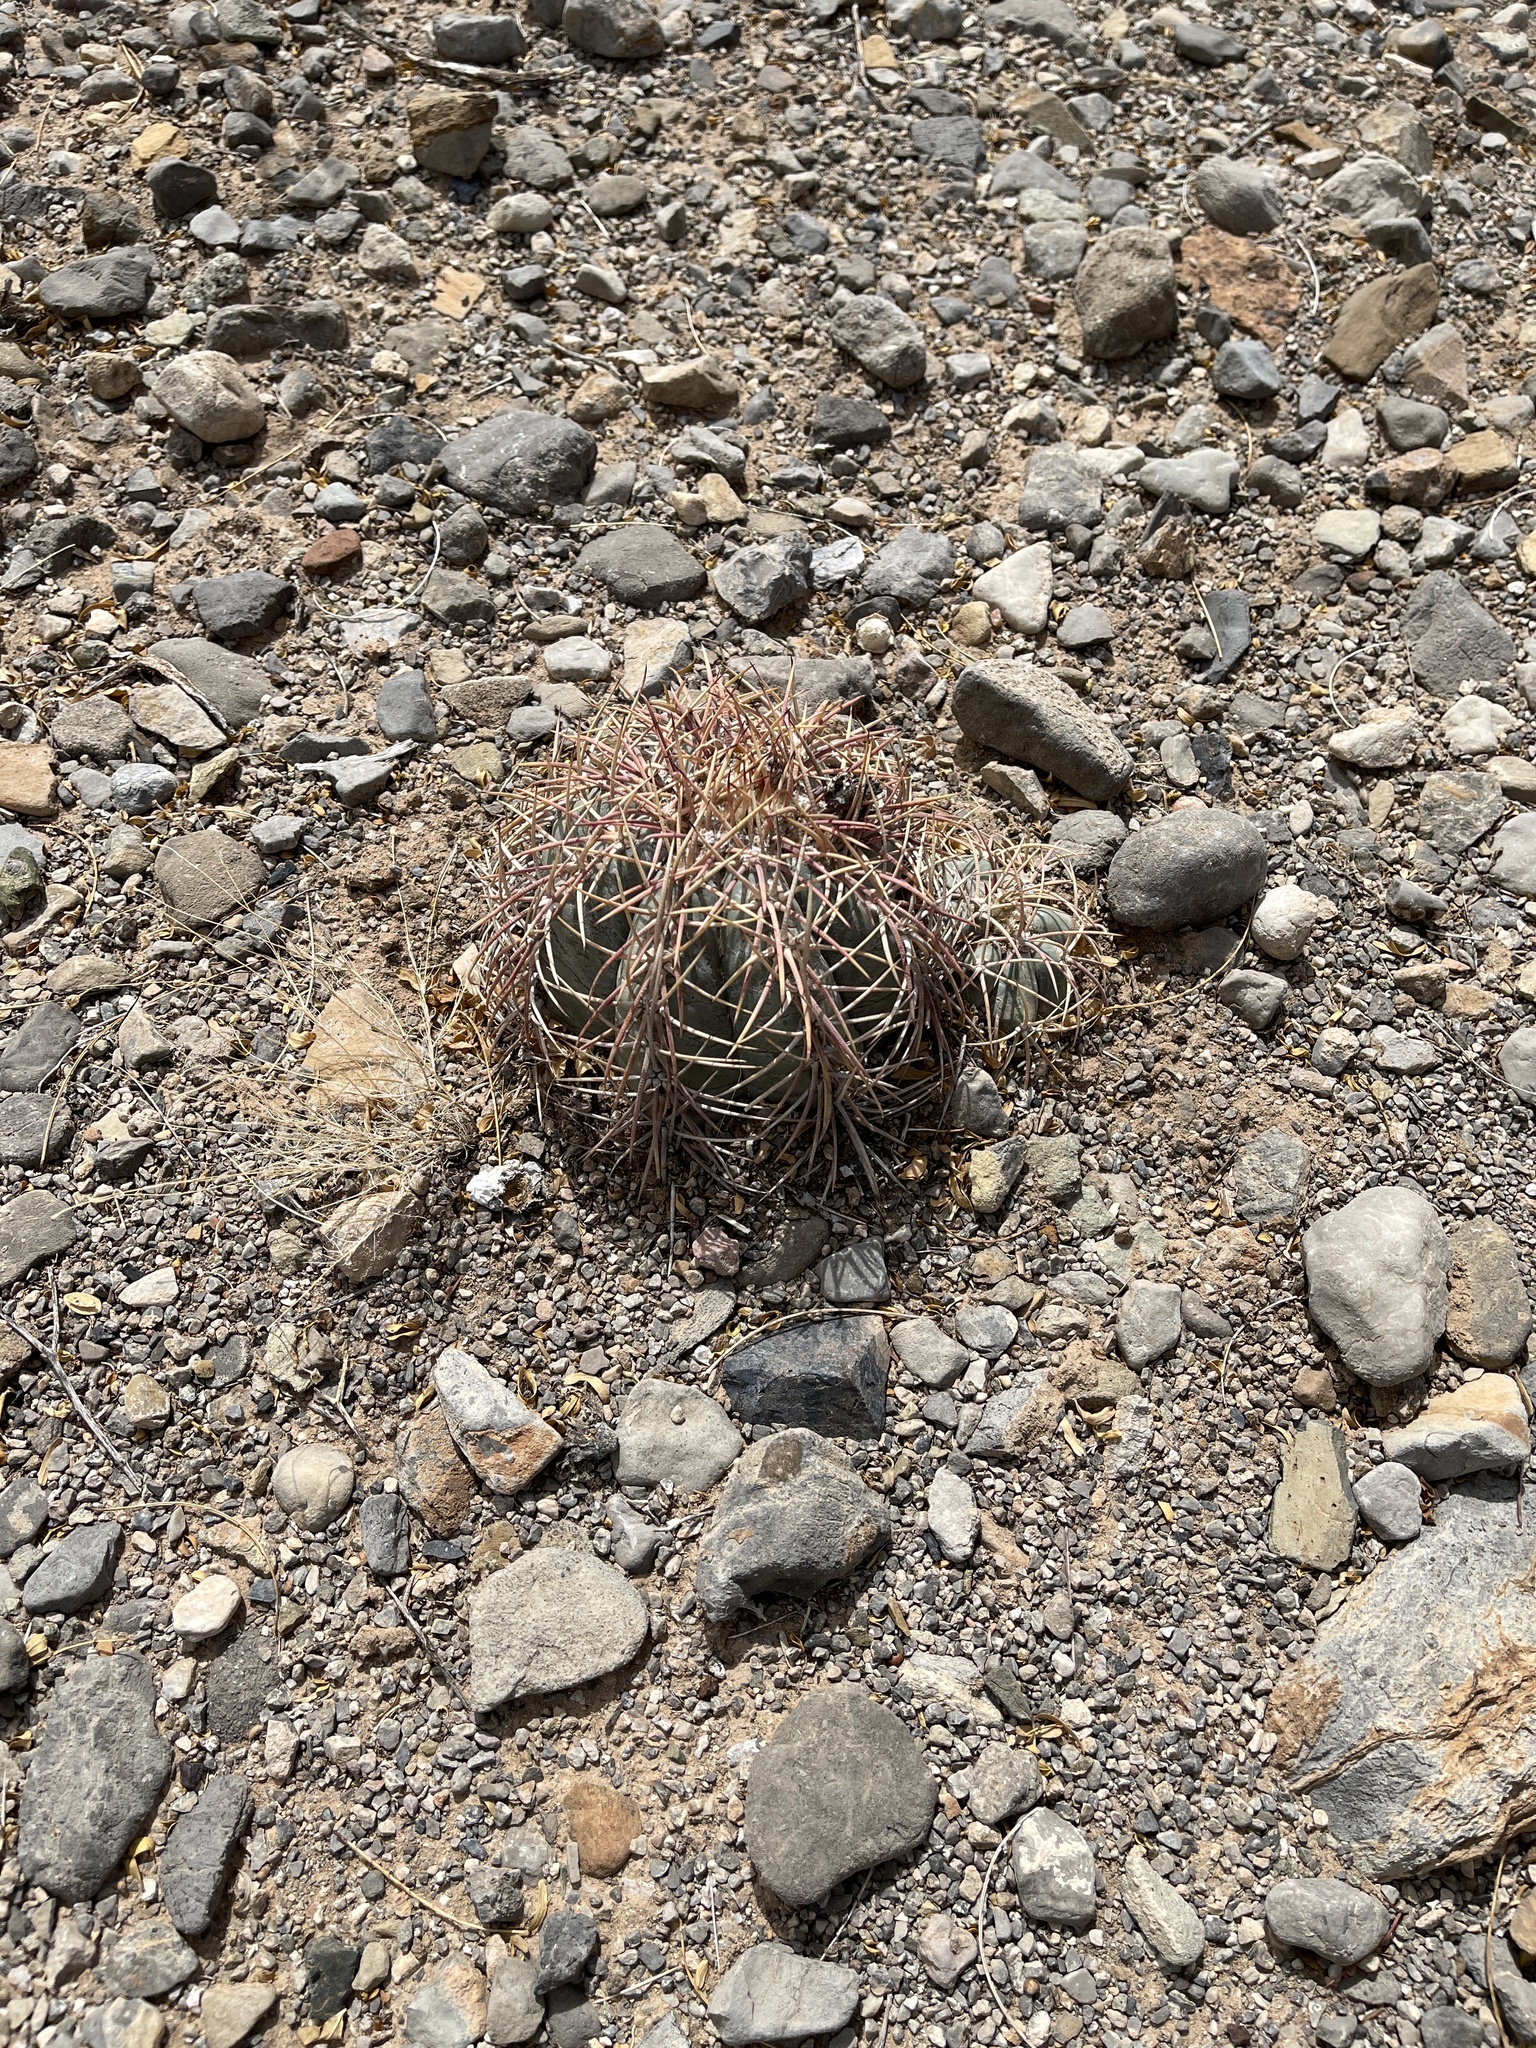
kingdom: Plantae
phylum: Tracheophyta
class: Magnoliopsida
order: Caryophyllales
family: Cactaceae
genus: Echinocactus
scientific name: Echinocactus horizonthalonius
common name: Devilshead
